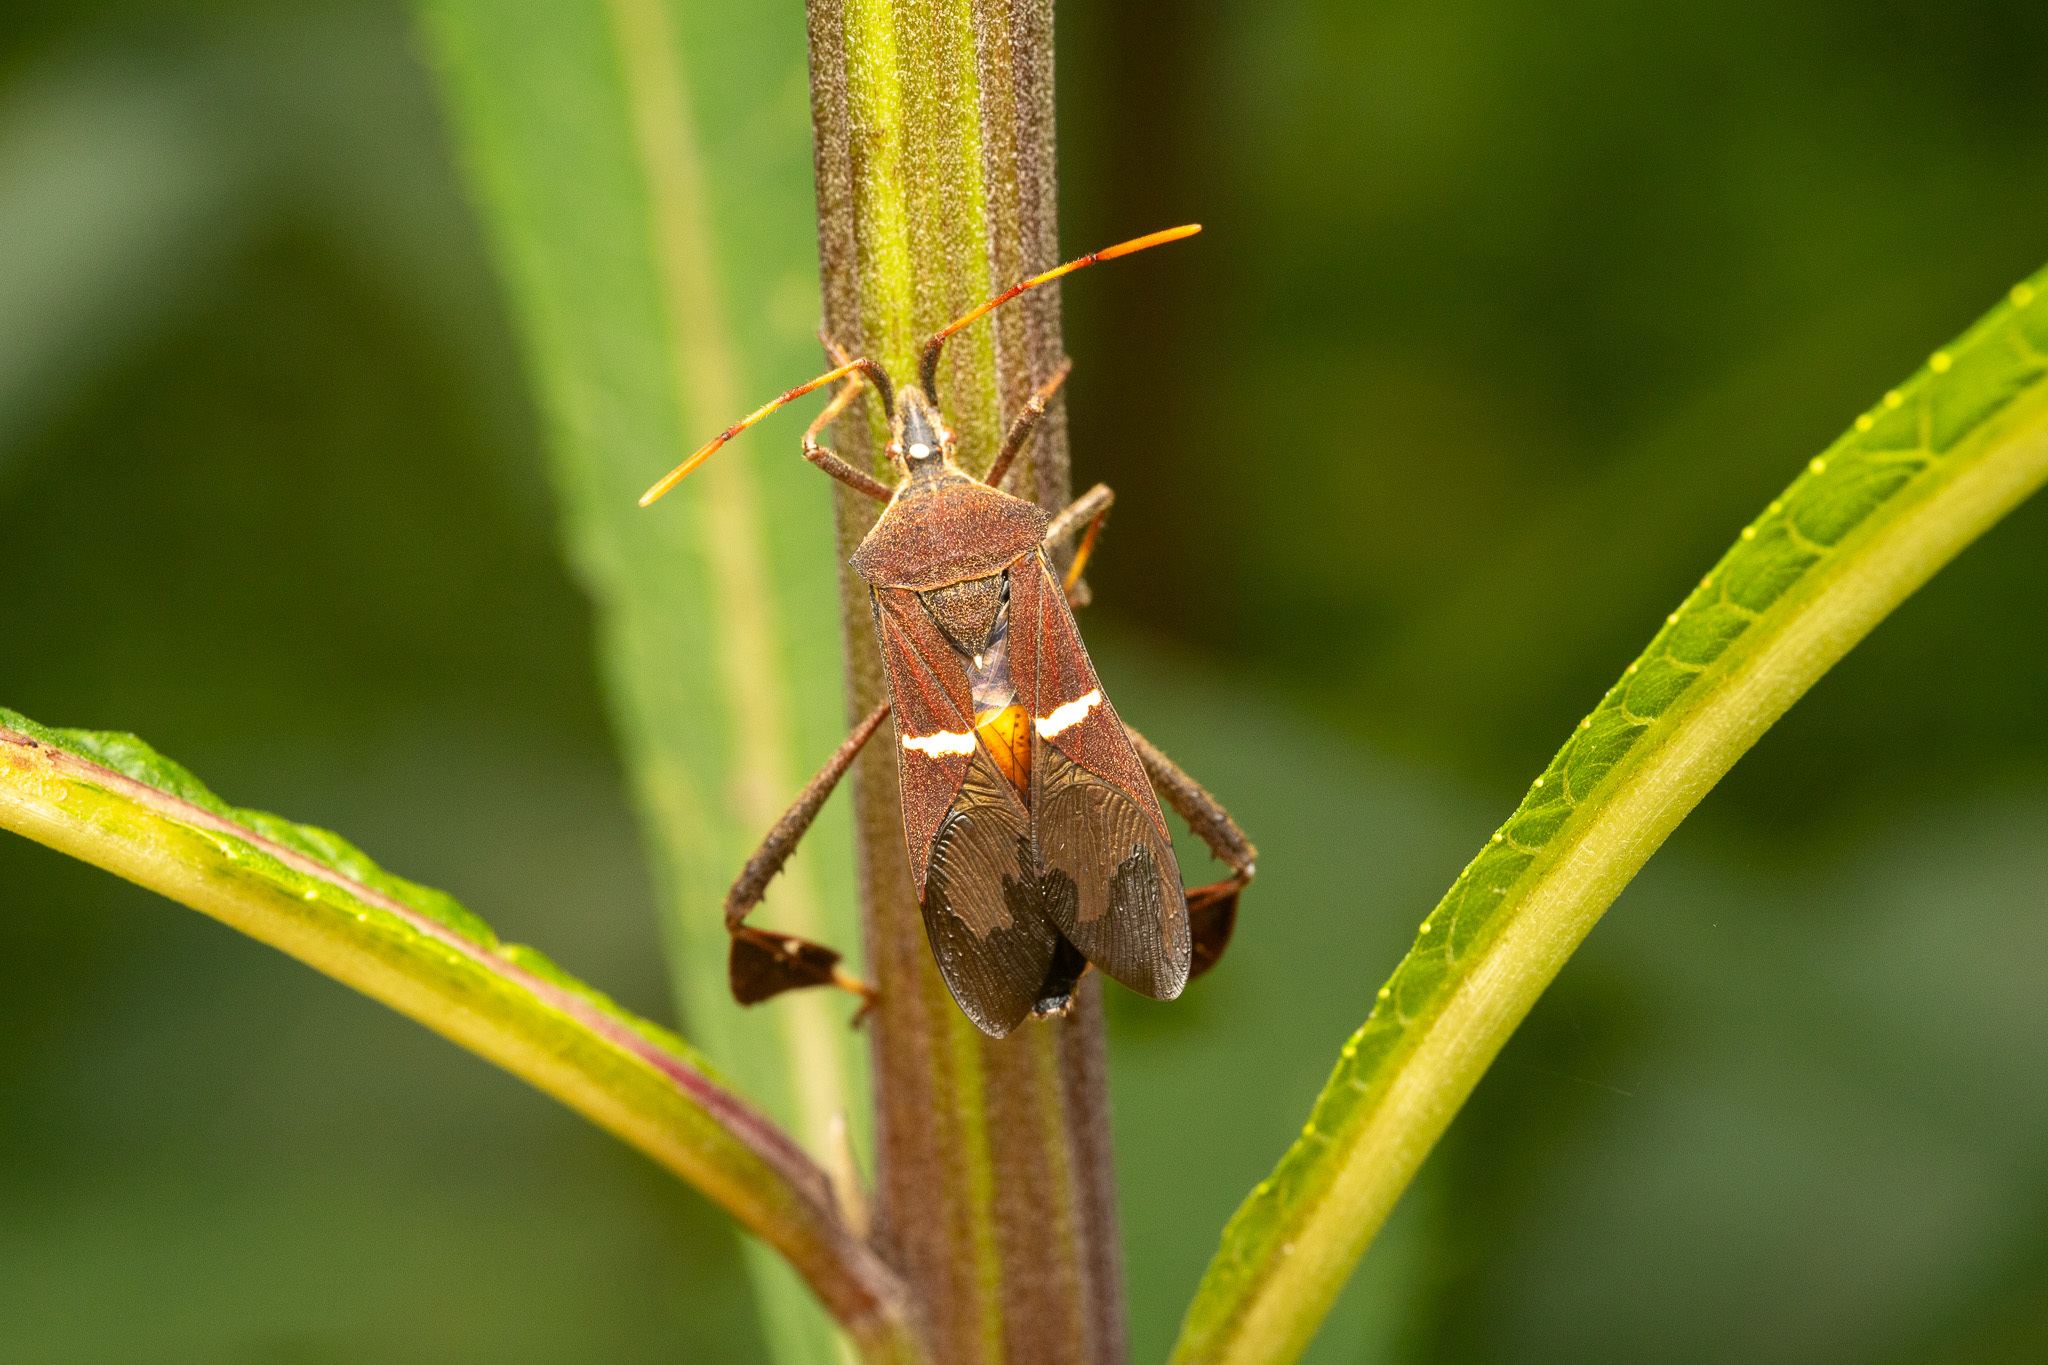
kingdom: Animalia
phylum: Arthropoda
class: Insecta
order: Hemiptera
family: Coreidae
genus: Leptoglossus
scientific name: Leptoglossus phyllopus
